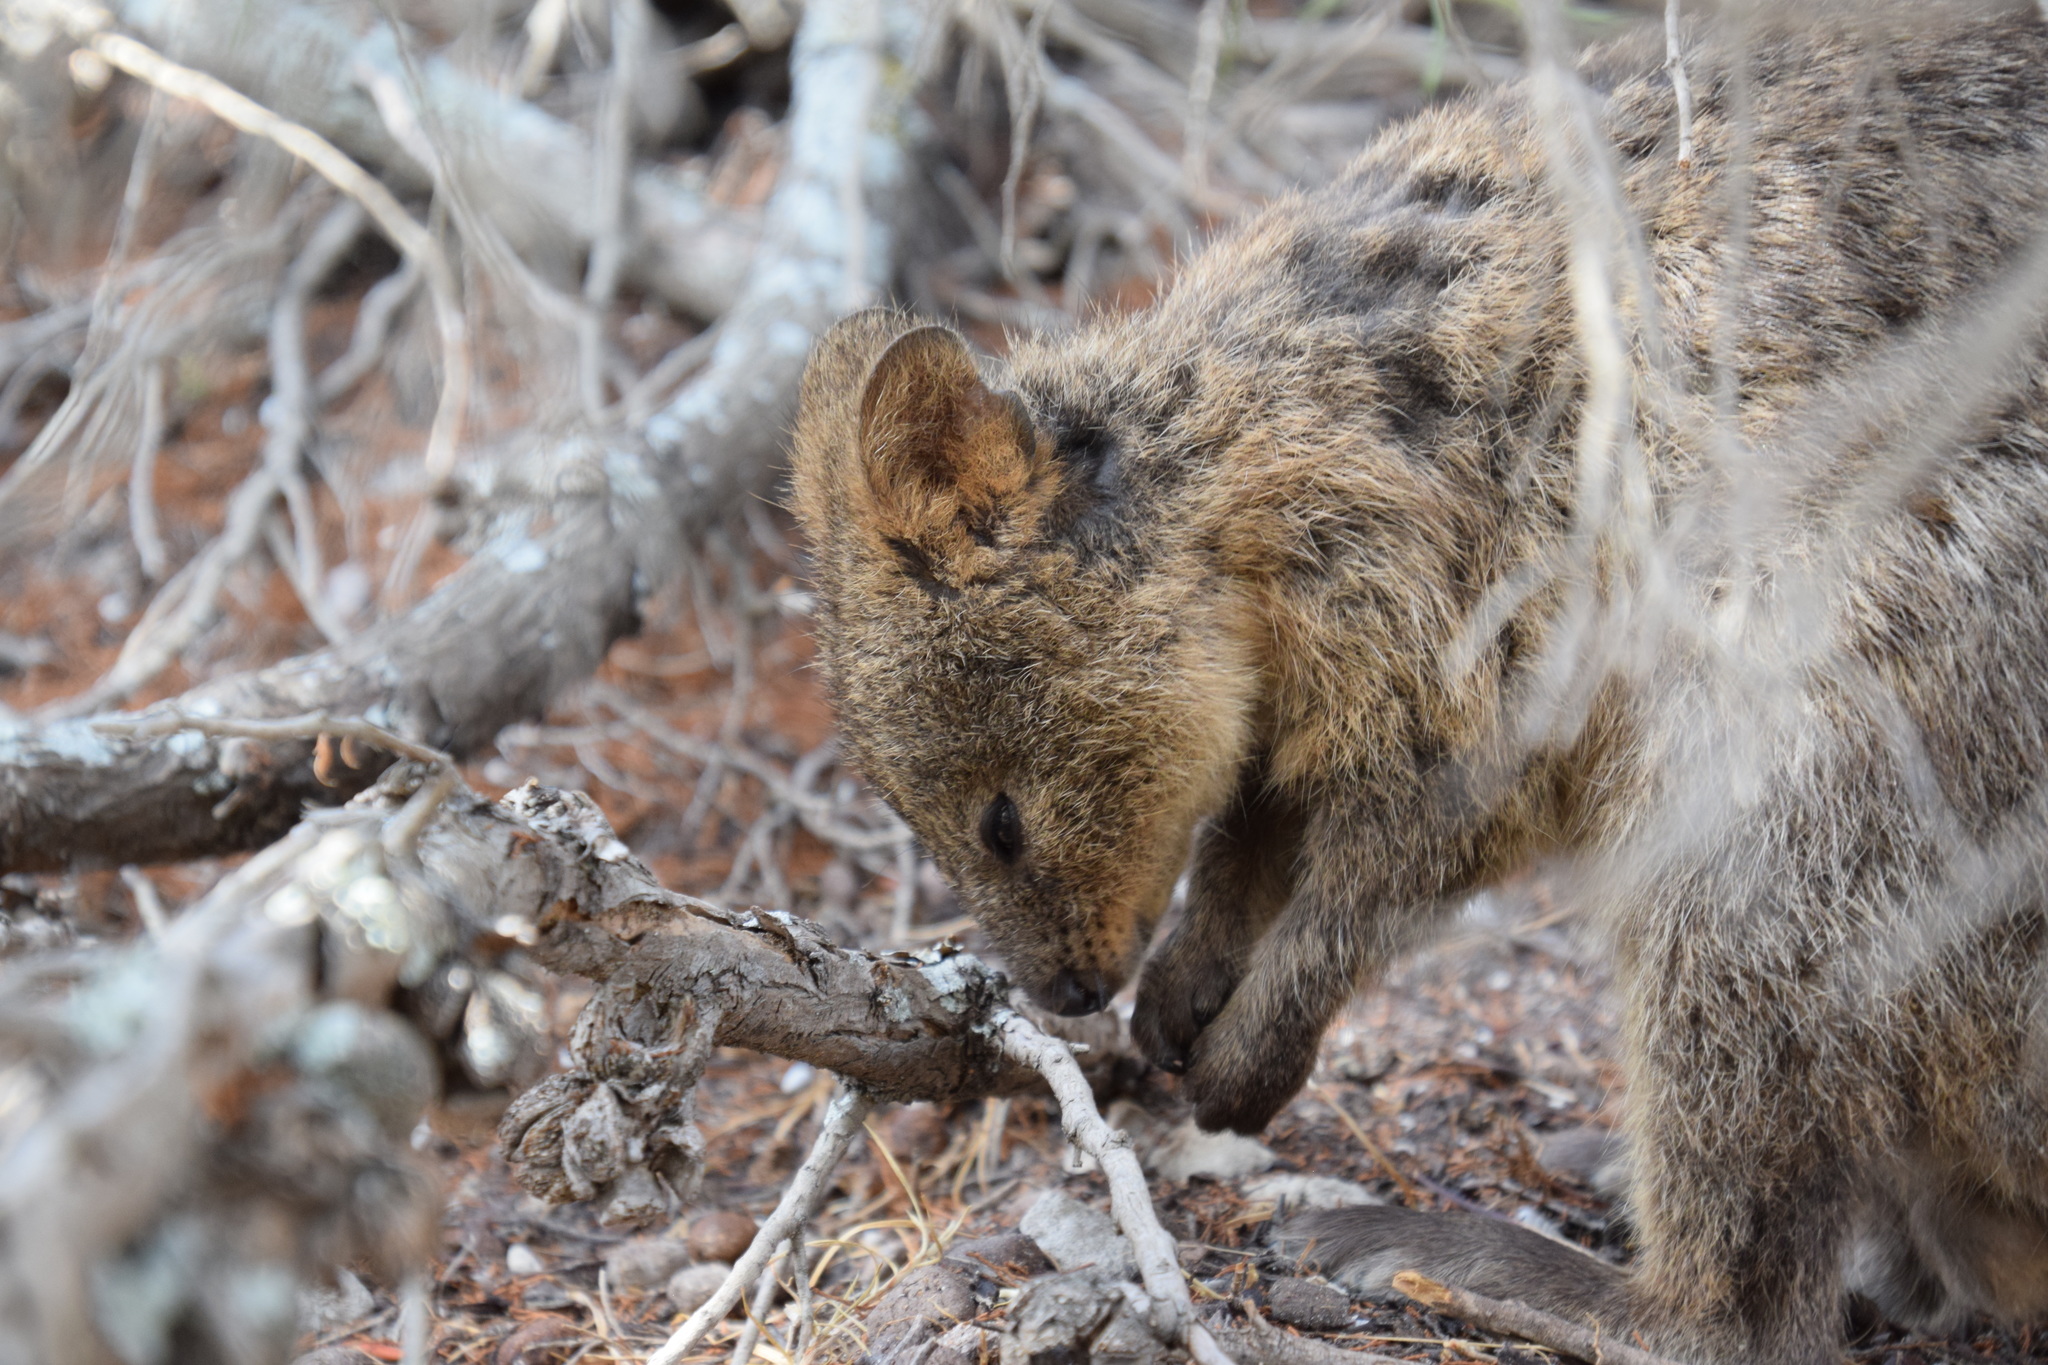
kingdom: Animalia
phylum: Chordata
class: Mammalia
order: Diprotodontia
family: Macropodidae
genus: Setonix
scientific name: Setonix brachyurus
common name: Quokka
